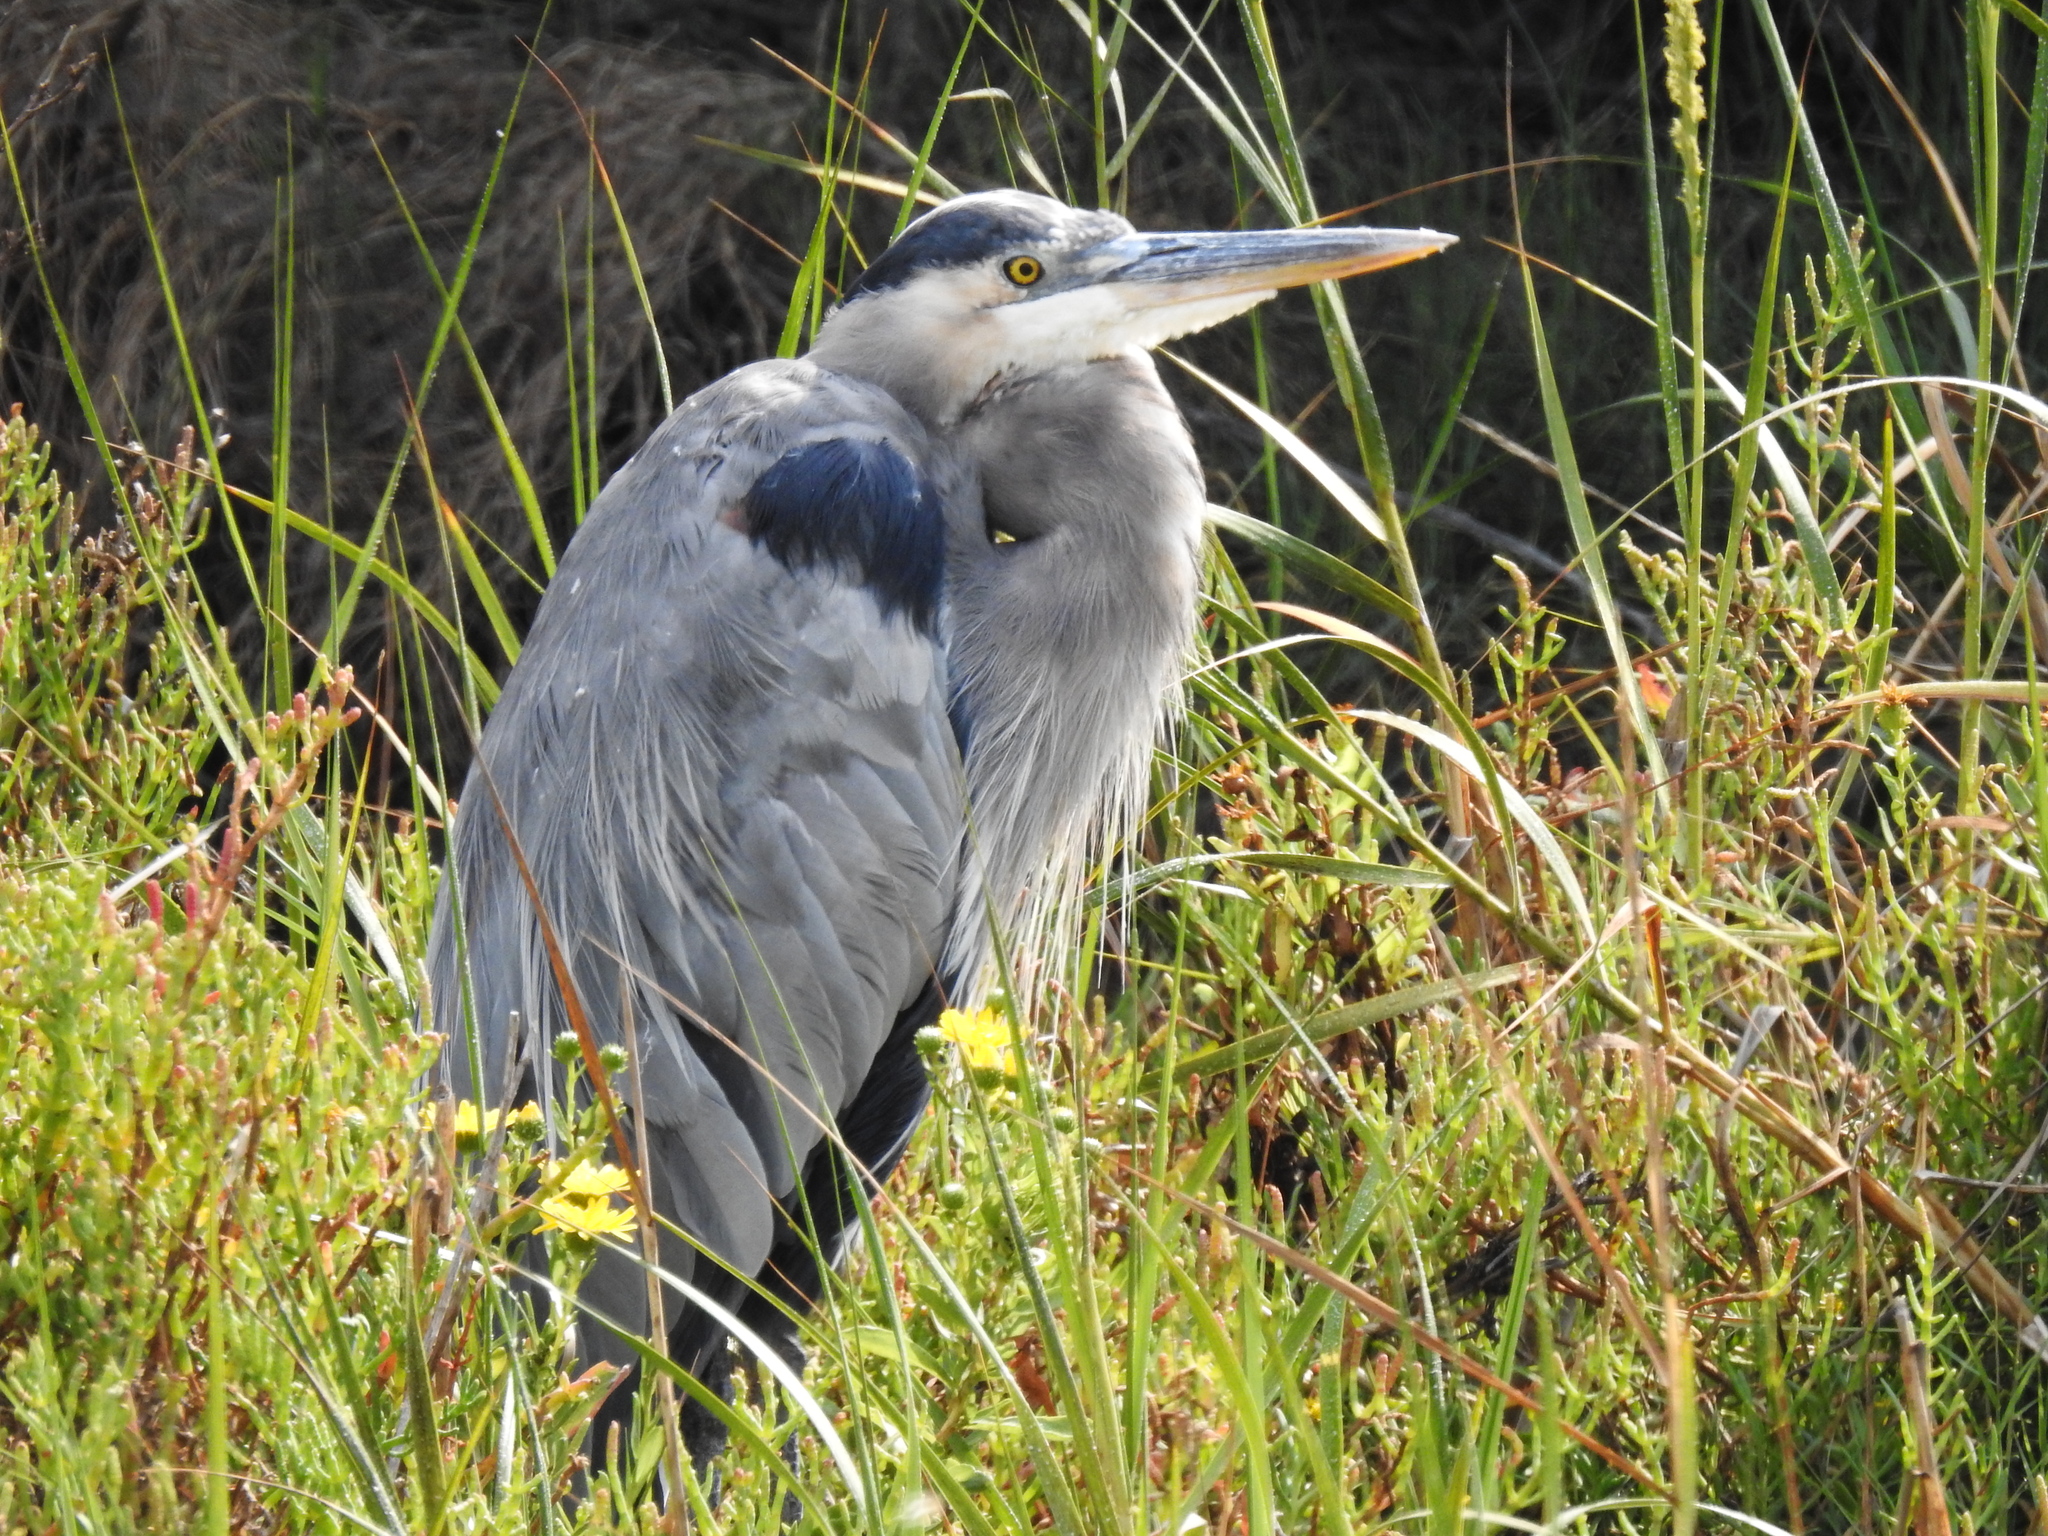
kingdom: Animalia
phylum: Chordata
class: Aves
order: Pelecaniformes
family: Ardeidae
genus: Ardea
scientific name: Ardea herodias
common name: Great blue heron
